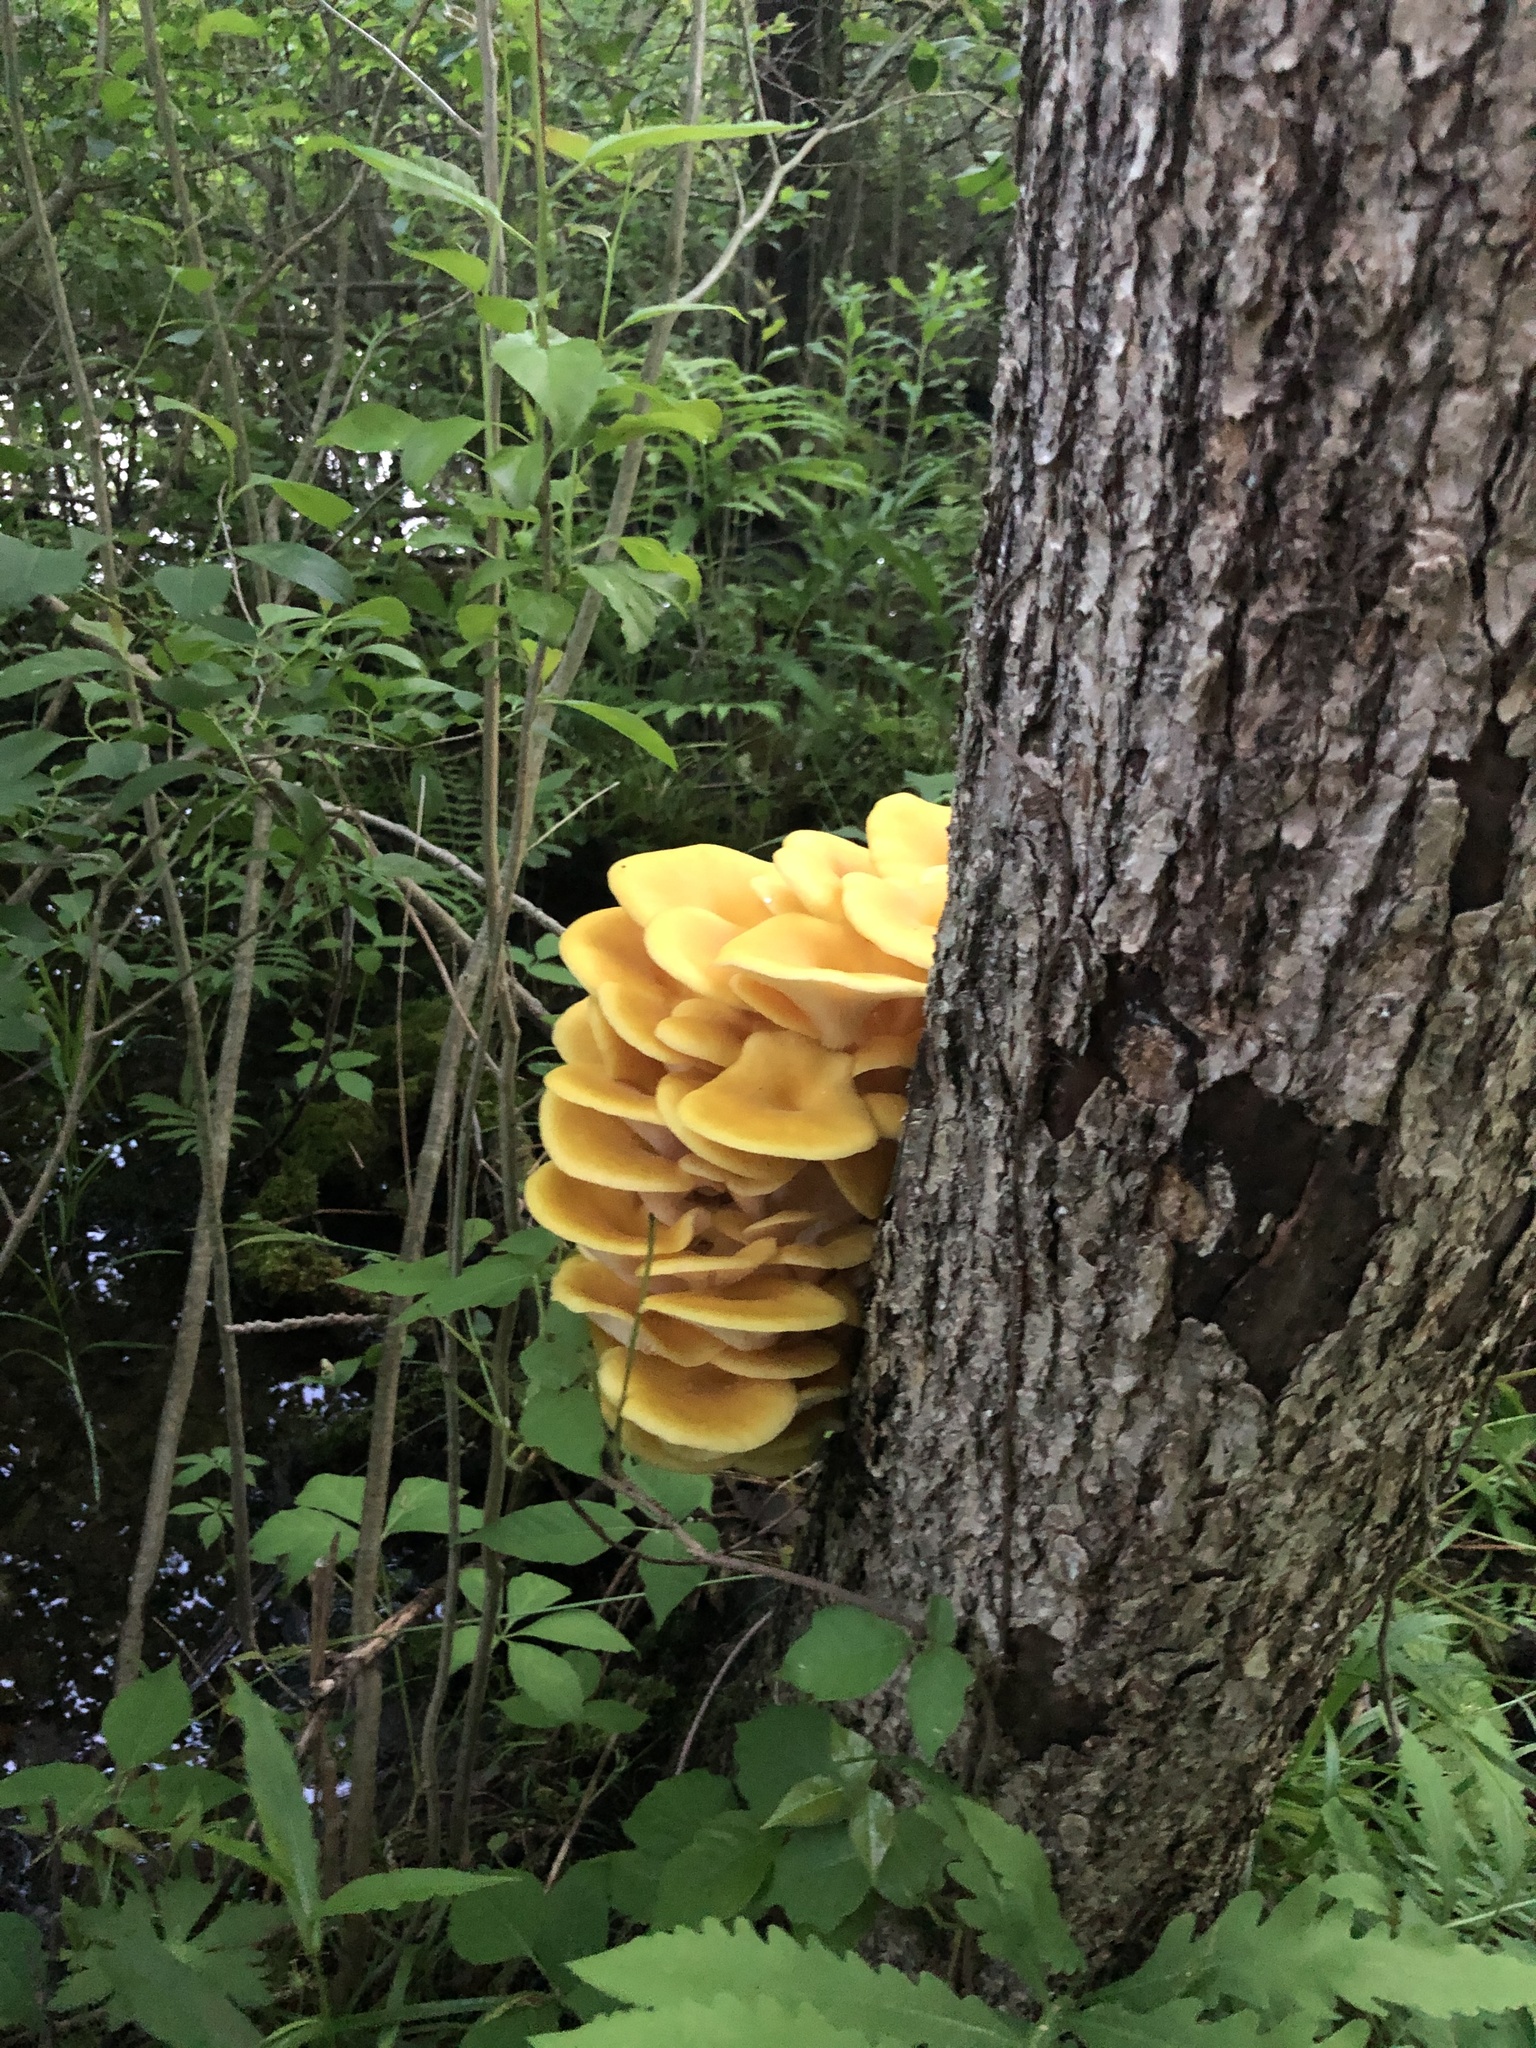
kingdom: Fungi
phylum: Basidiomycota
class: Agaricomycetes
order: Agaricales
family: Pleurotaceae
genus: Pleurotus
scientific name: Pleurotus citrinopileatus
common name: Golden oyster mushroom
